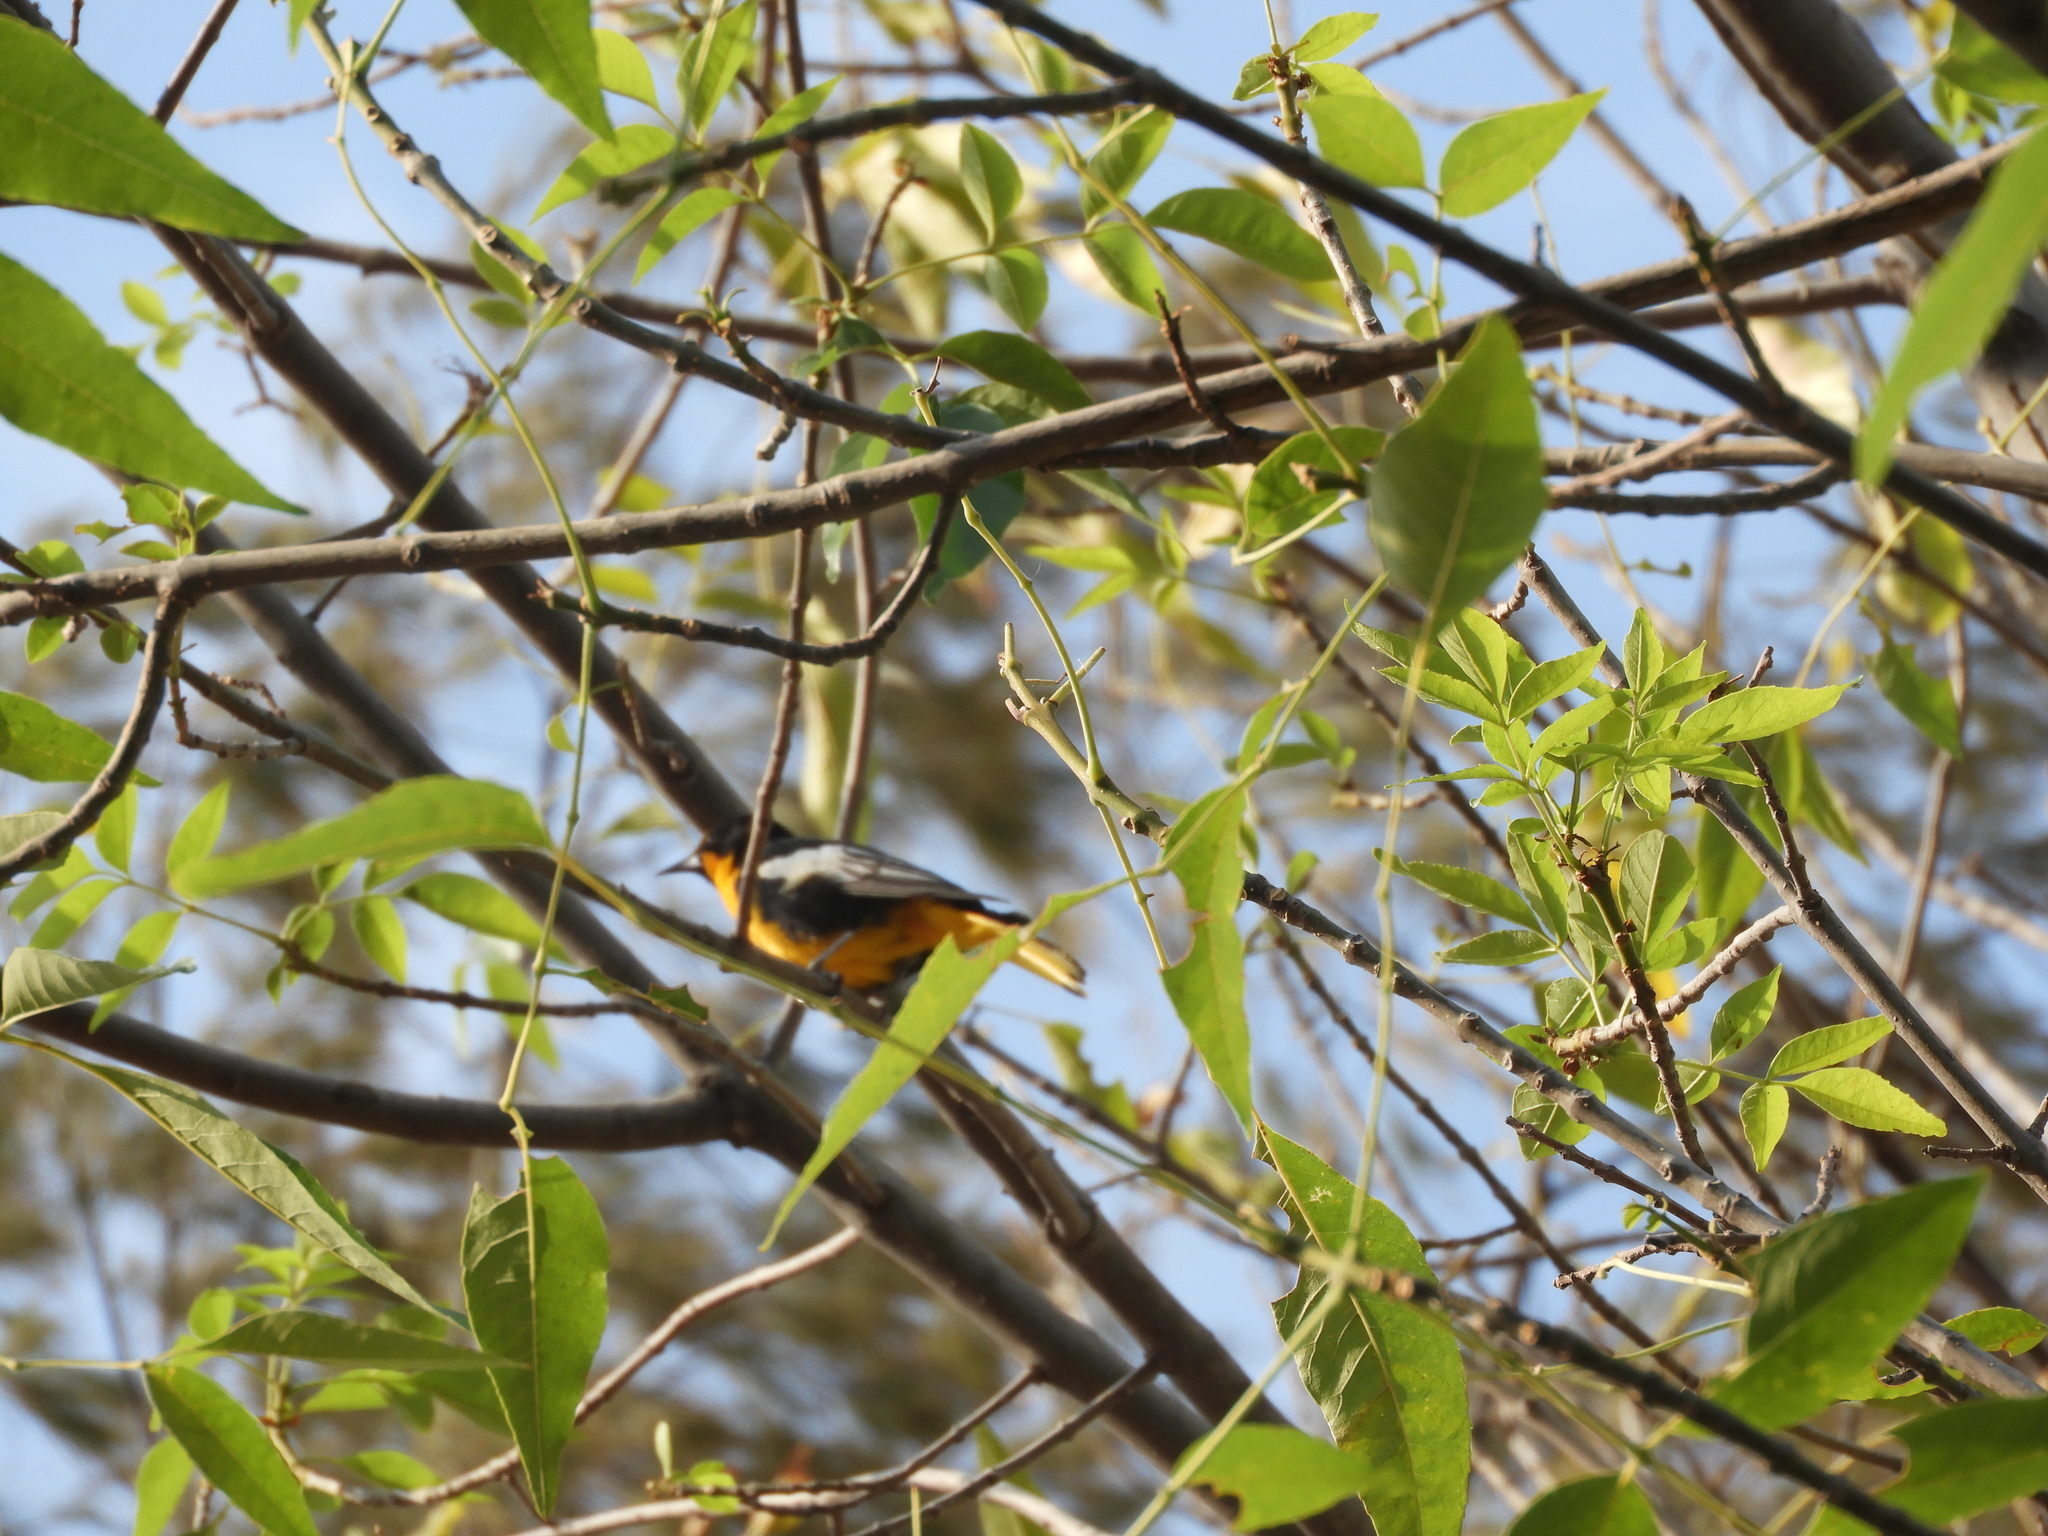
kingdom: Animalia
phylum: Chordata
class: Aves
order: Passeriformes
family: Icteridae
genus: Icterus
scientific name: Icterus abeillei
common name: Black-backed oriole
